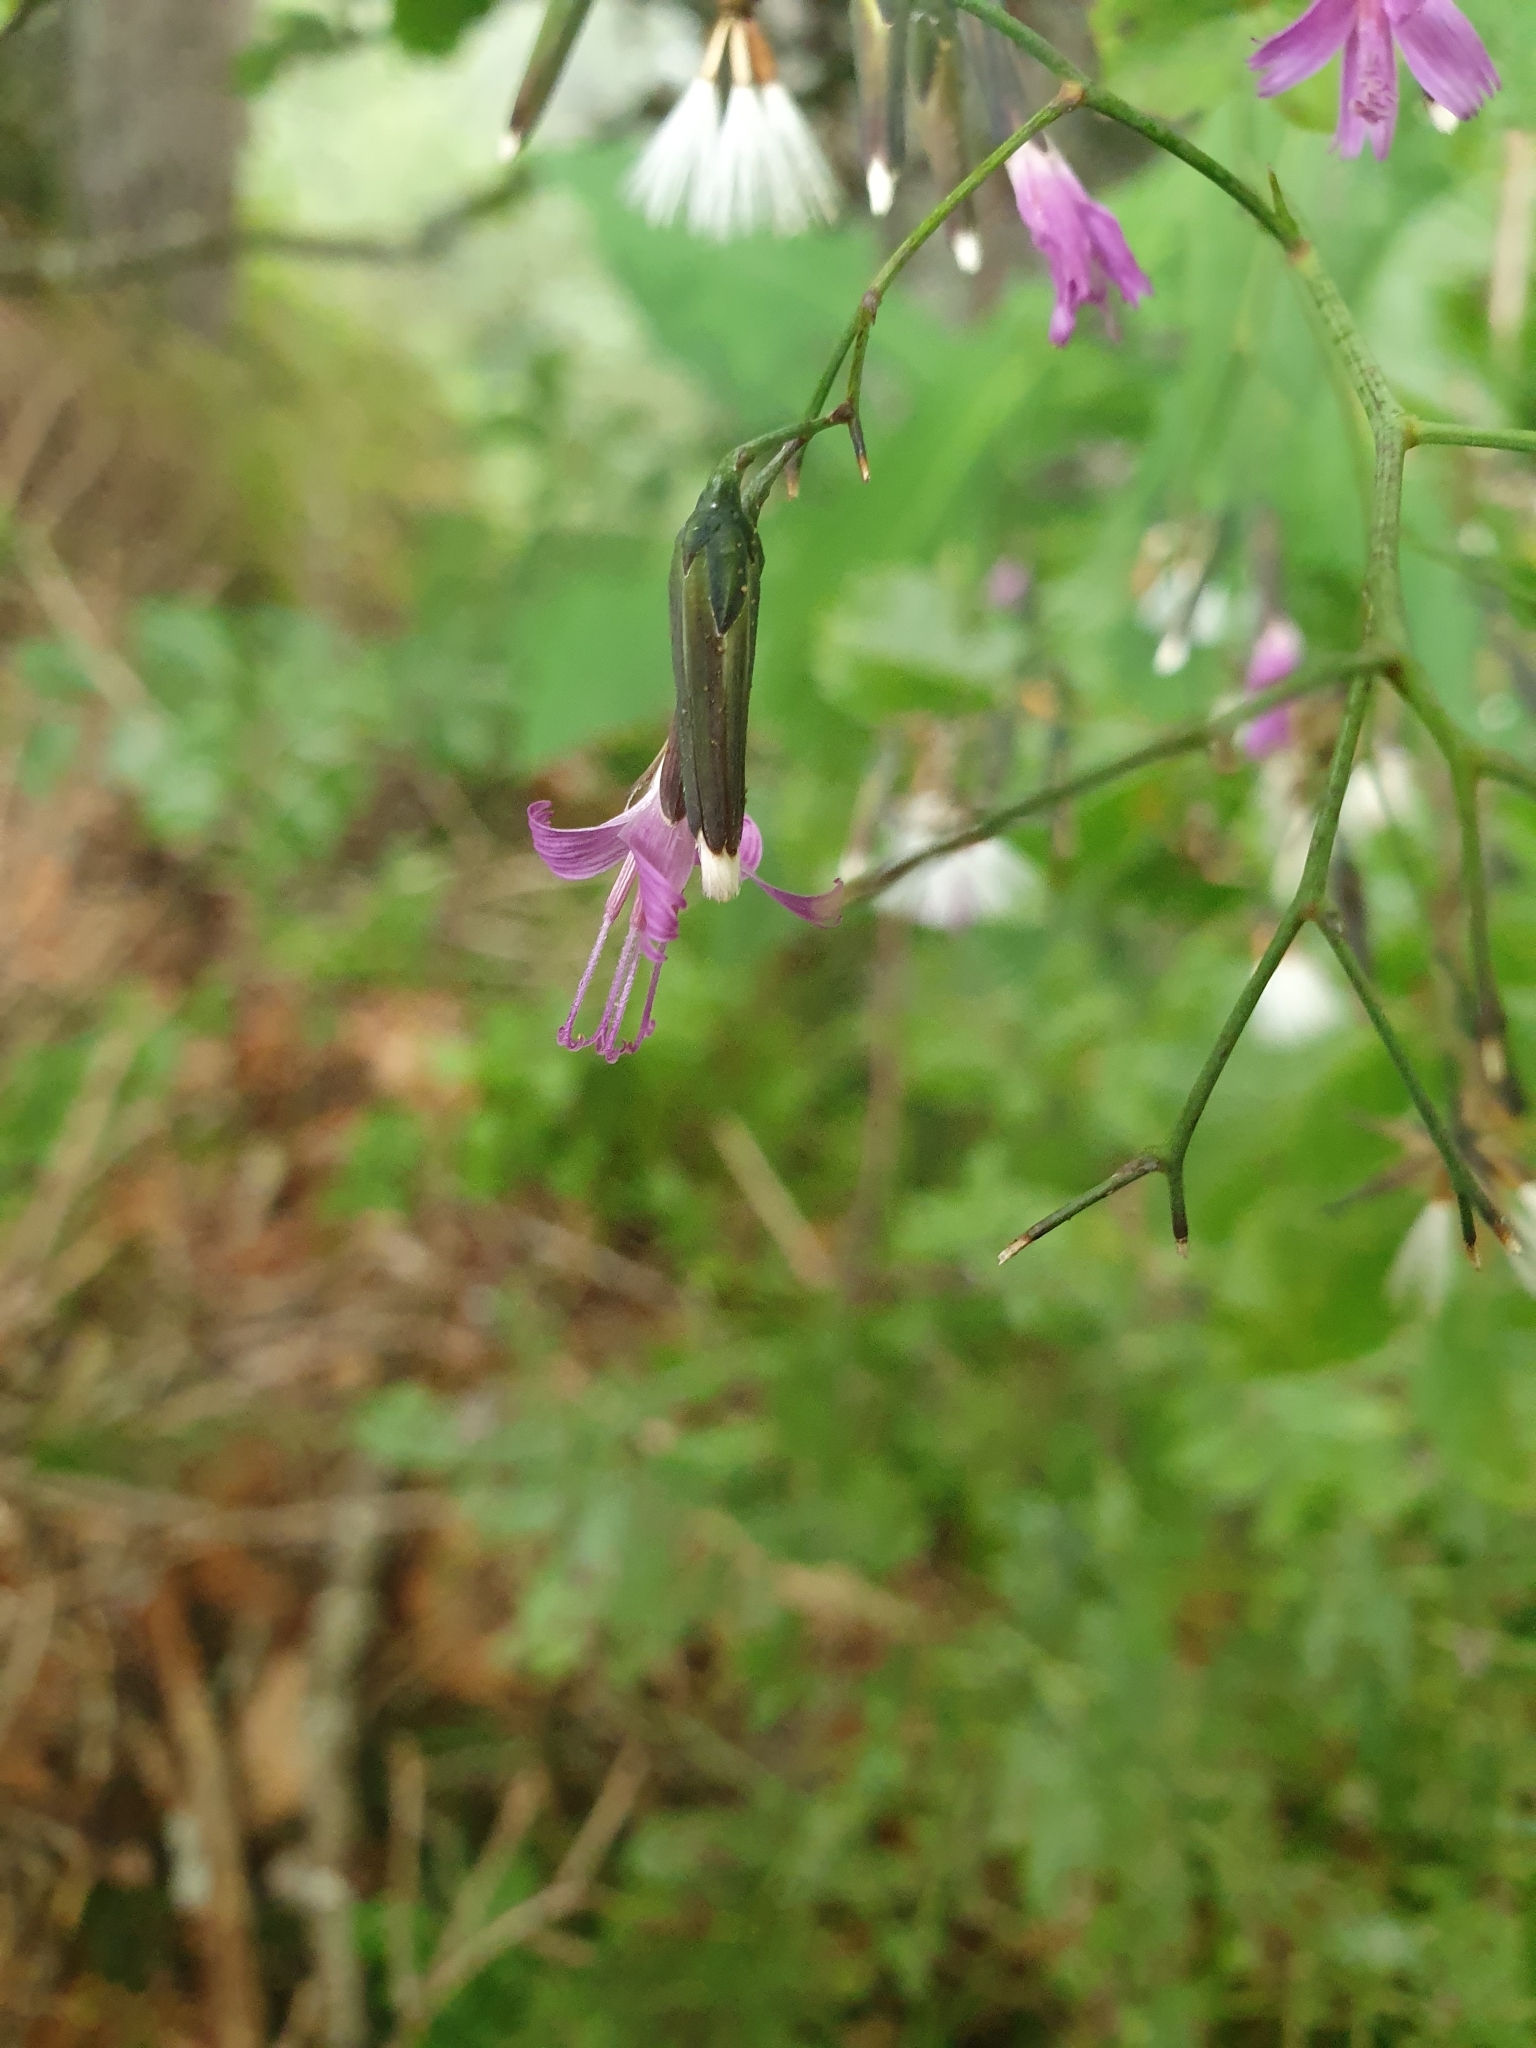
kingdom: Plantae
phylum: Tracheophyta
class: Magnoliopsida
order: Asterales
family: Asteraceae
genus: Prenanthes
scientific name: Prenanthes purpurea
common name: Purple lettuce
